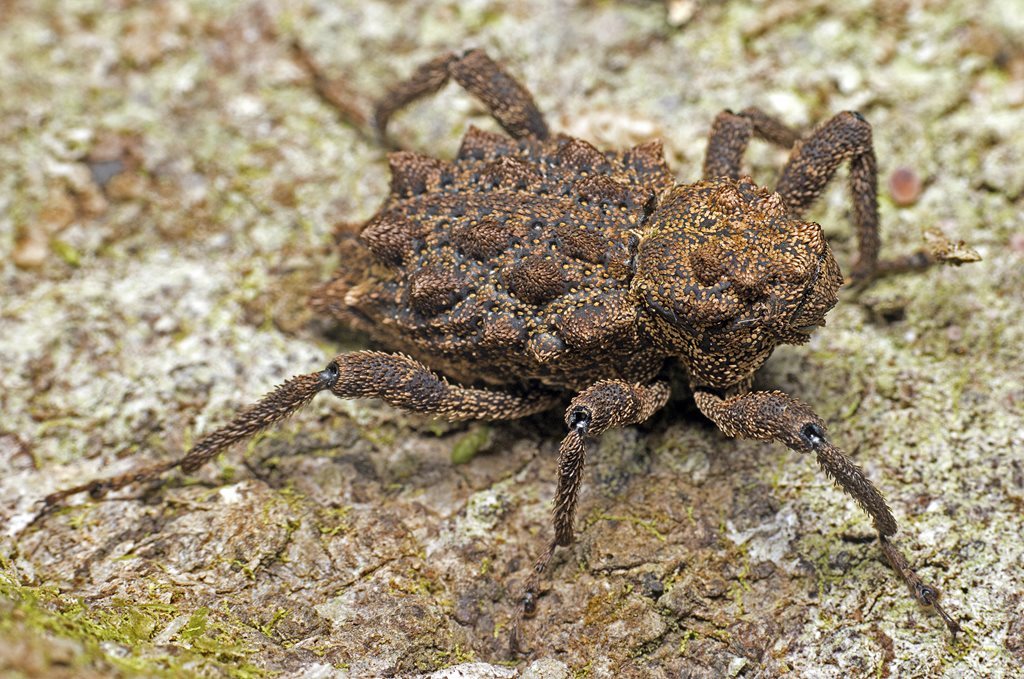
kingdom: Animalia
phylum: Arthropoda
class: Insecta
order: Coleoptera
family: Curculionidae
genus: Poropterus
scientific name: Poropterus parryi
